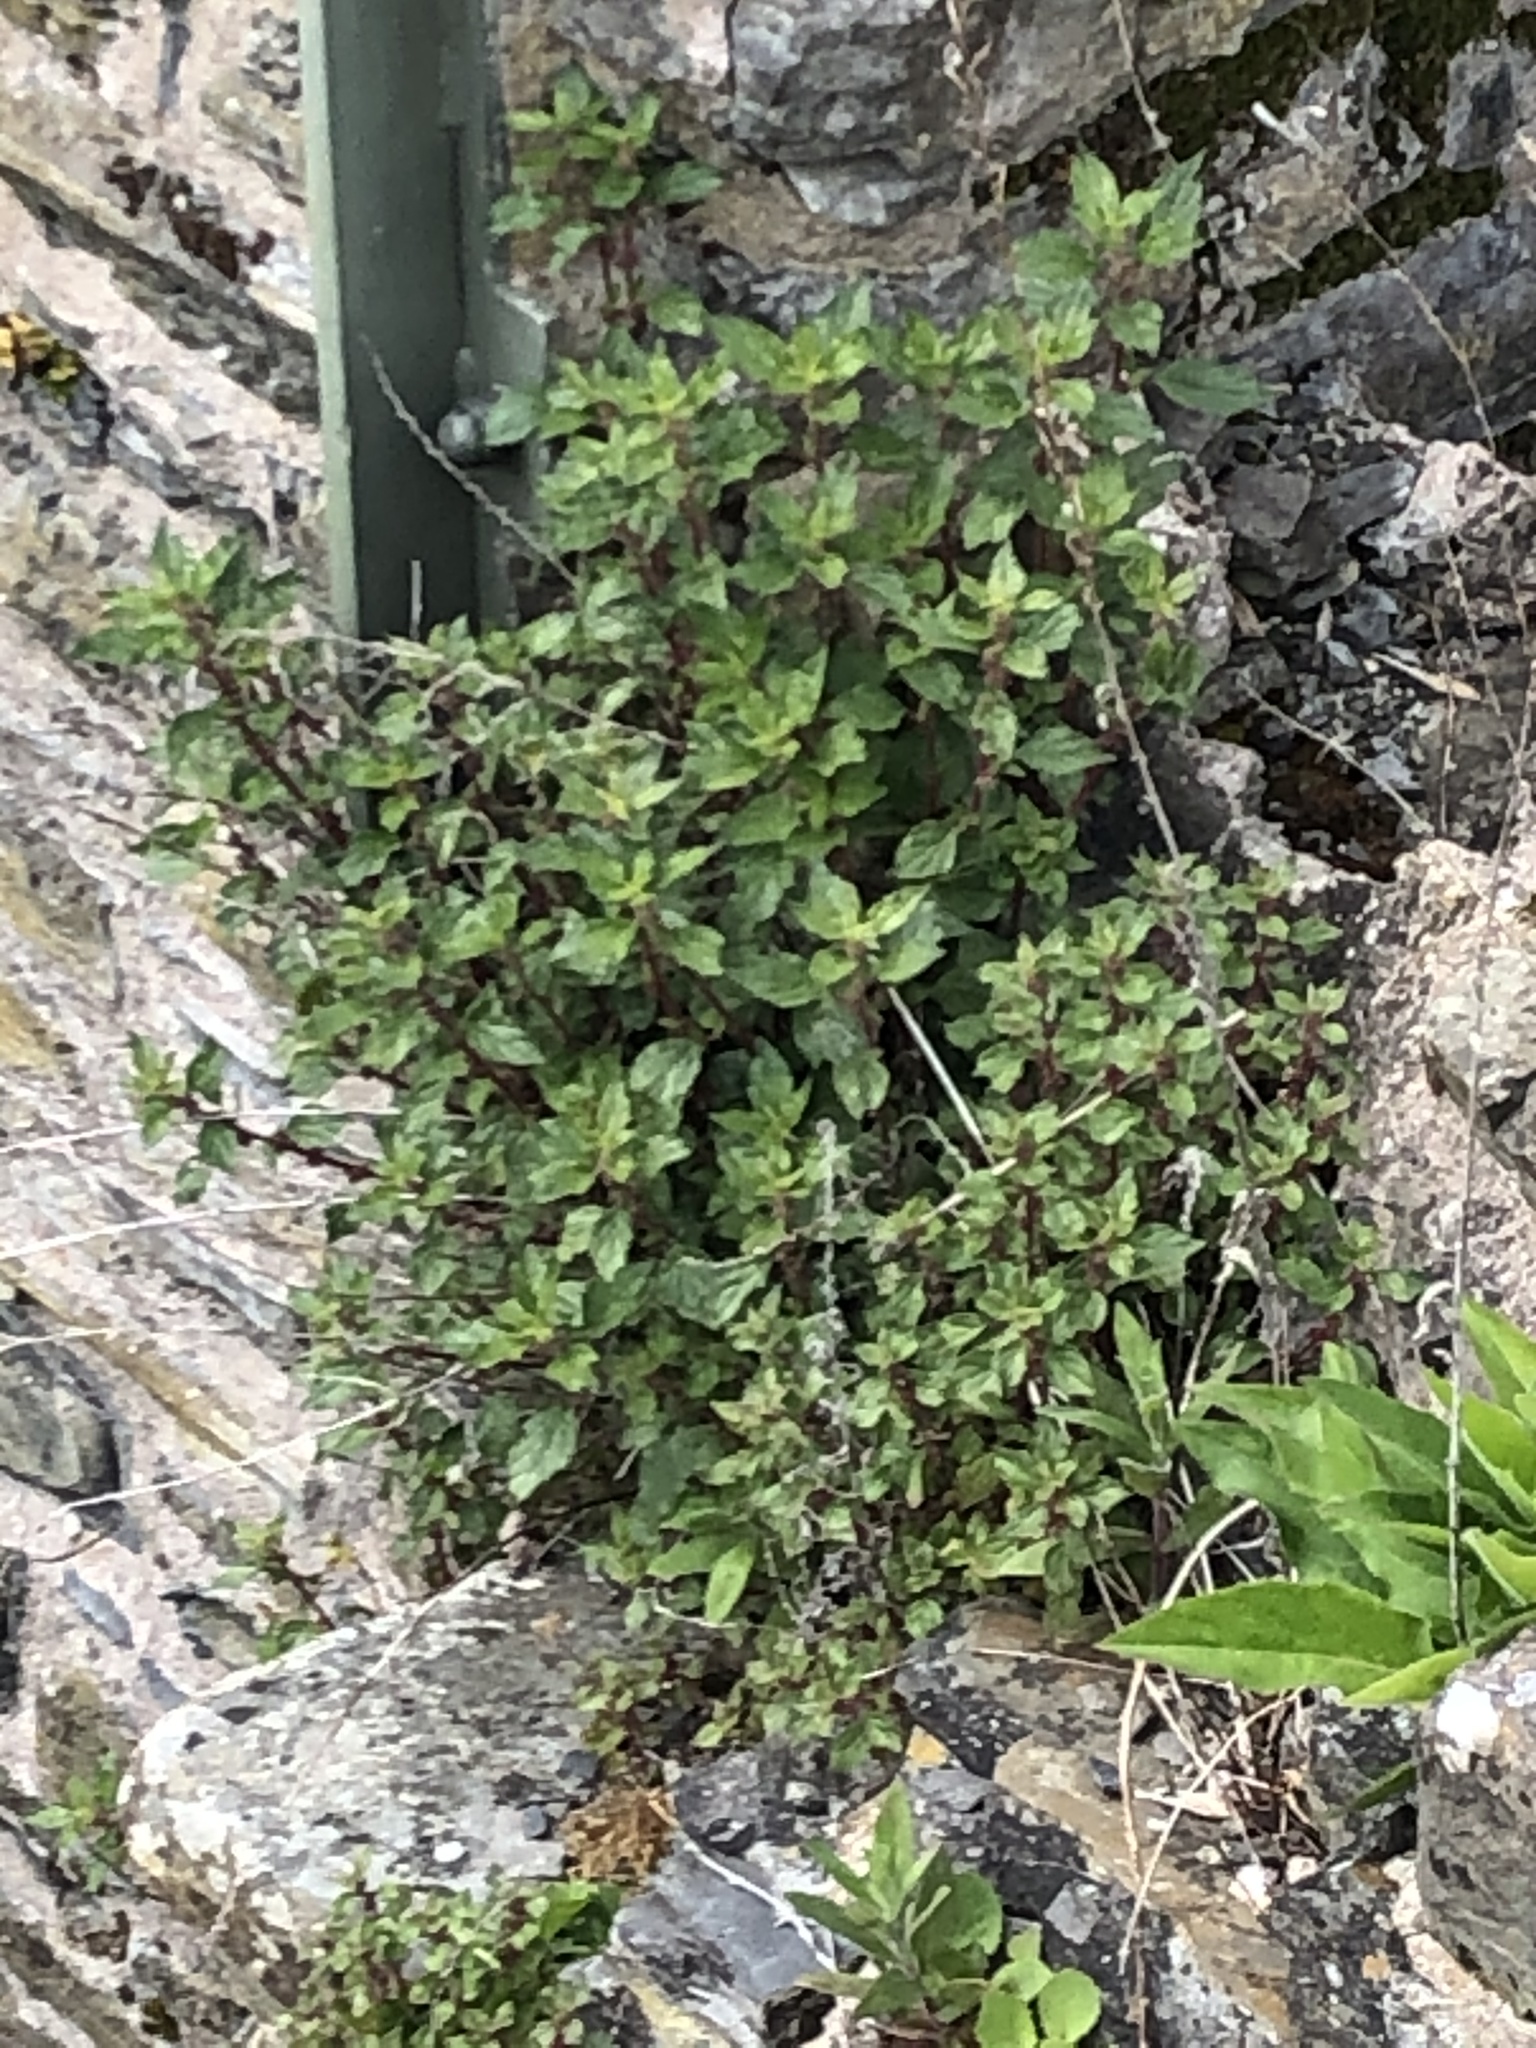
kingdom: Plantae
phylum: Tracheophyta
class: Magnoliopsida
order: Rosales
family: Urticaceae
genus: Parietaria
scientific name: Parietaria judaica
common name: Pellitory-of-the-wall
